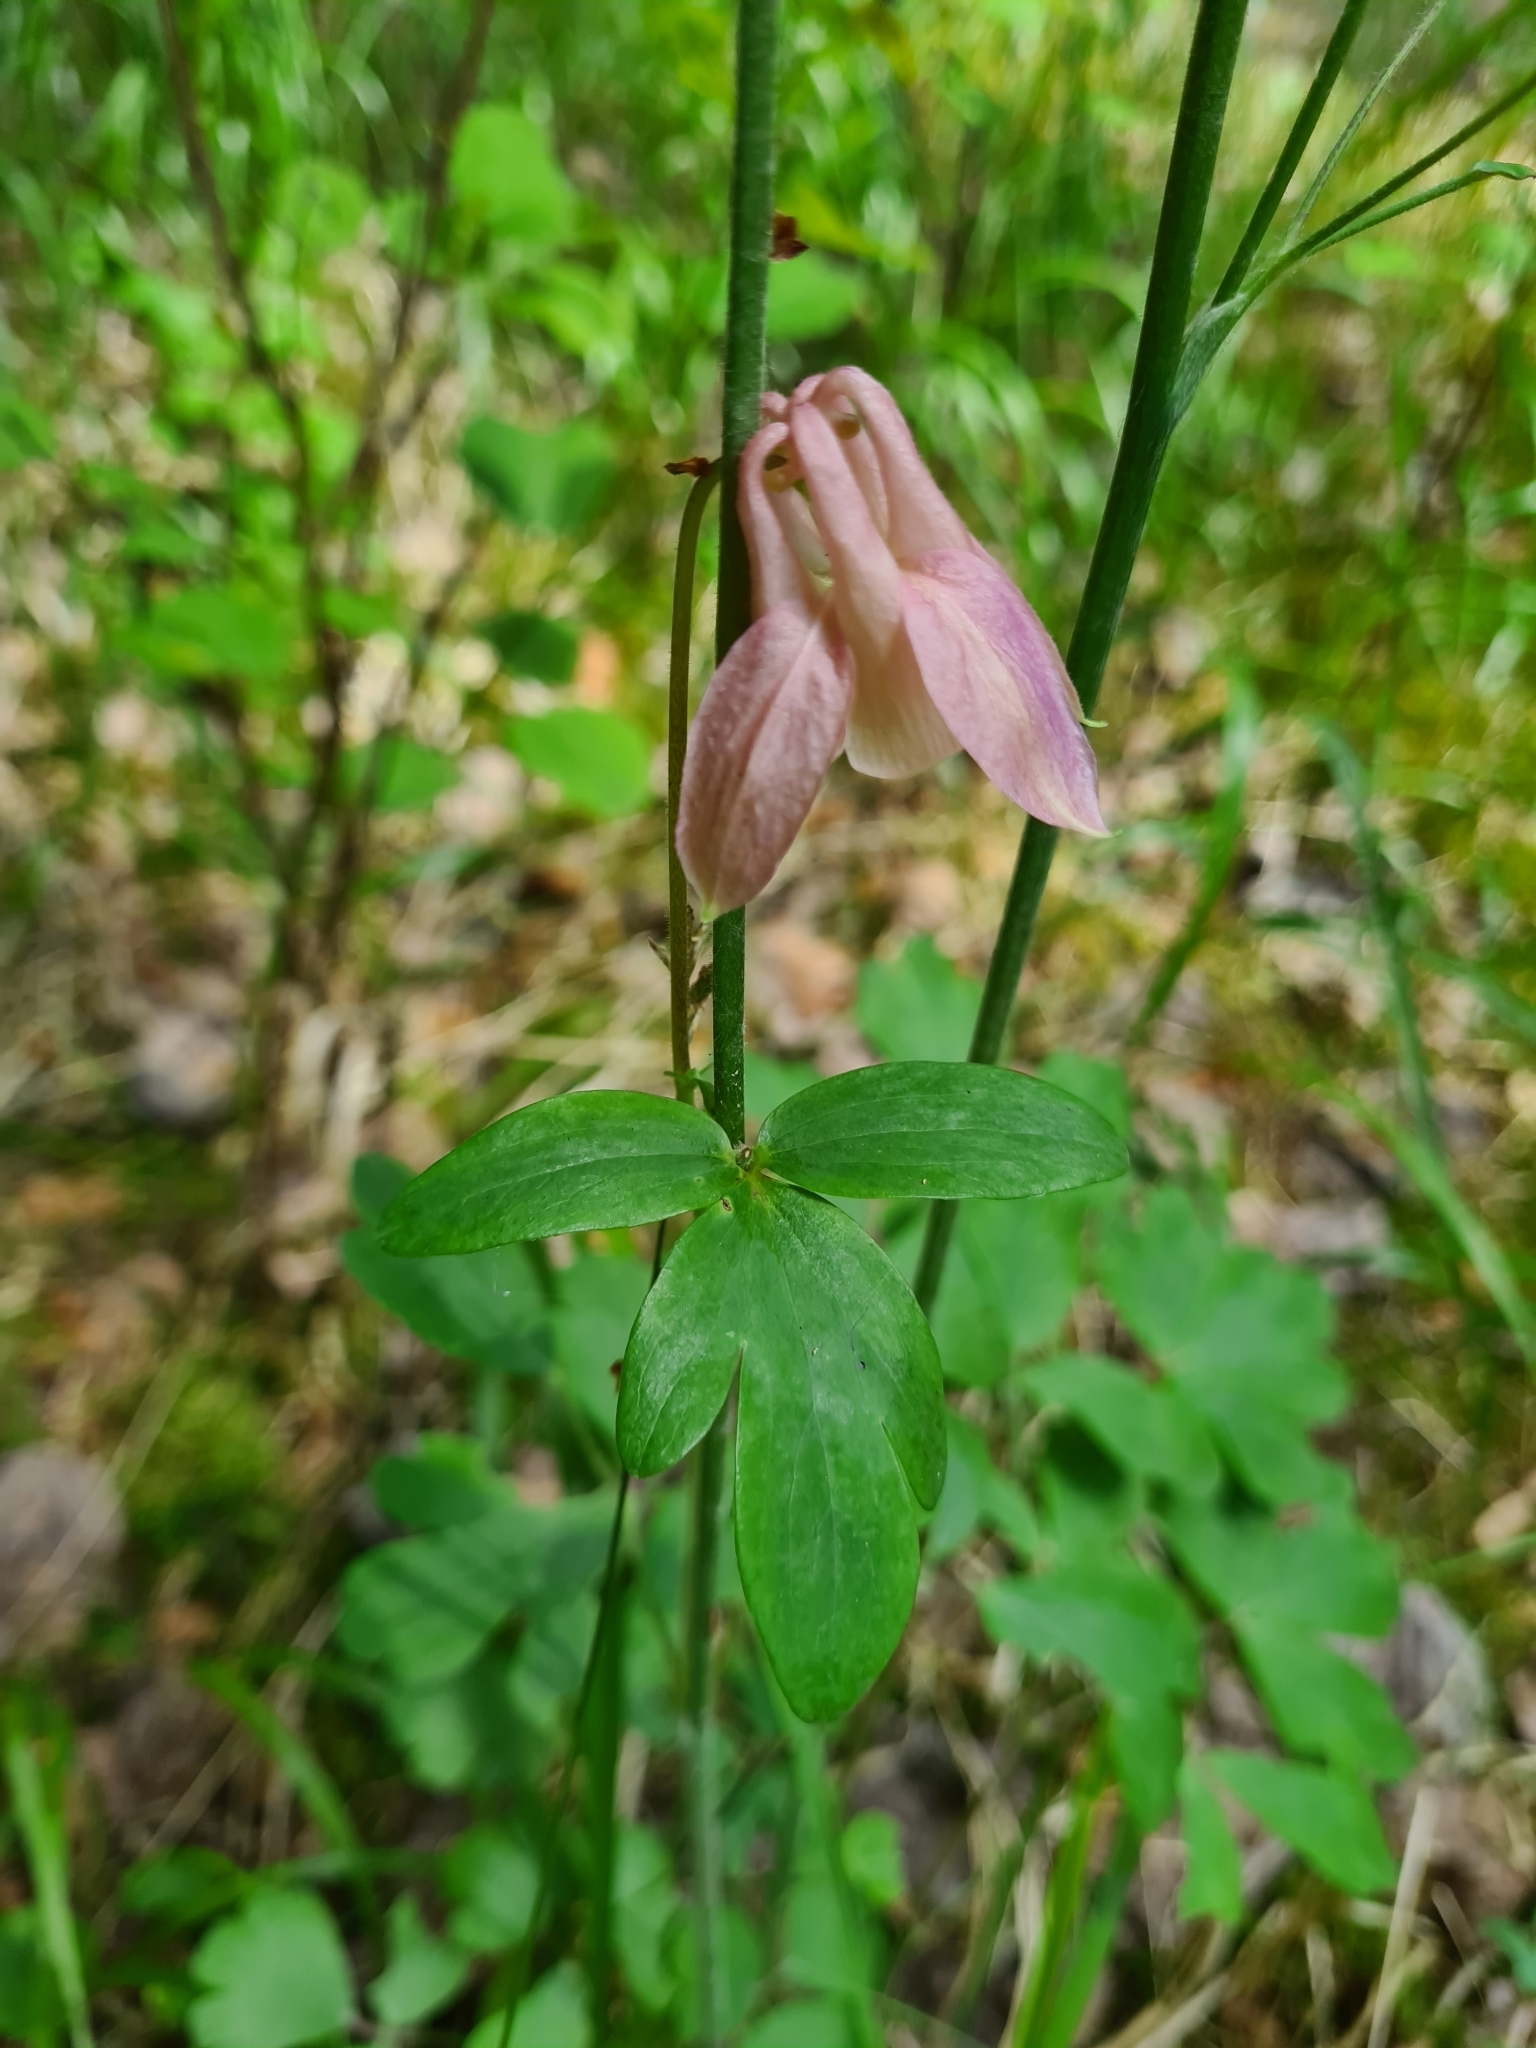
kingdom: Plantae
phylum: Tracheophyta
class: Magnoliopsida
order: Ranunculales
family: Ranunculaceae
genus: Aquilegia
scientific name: Aquilegia
